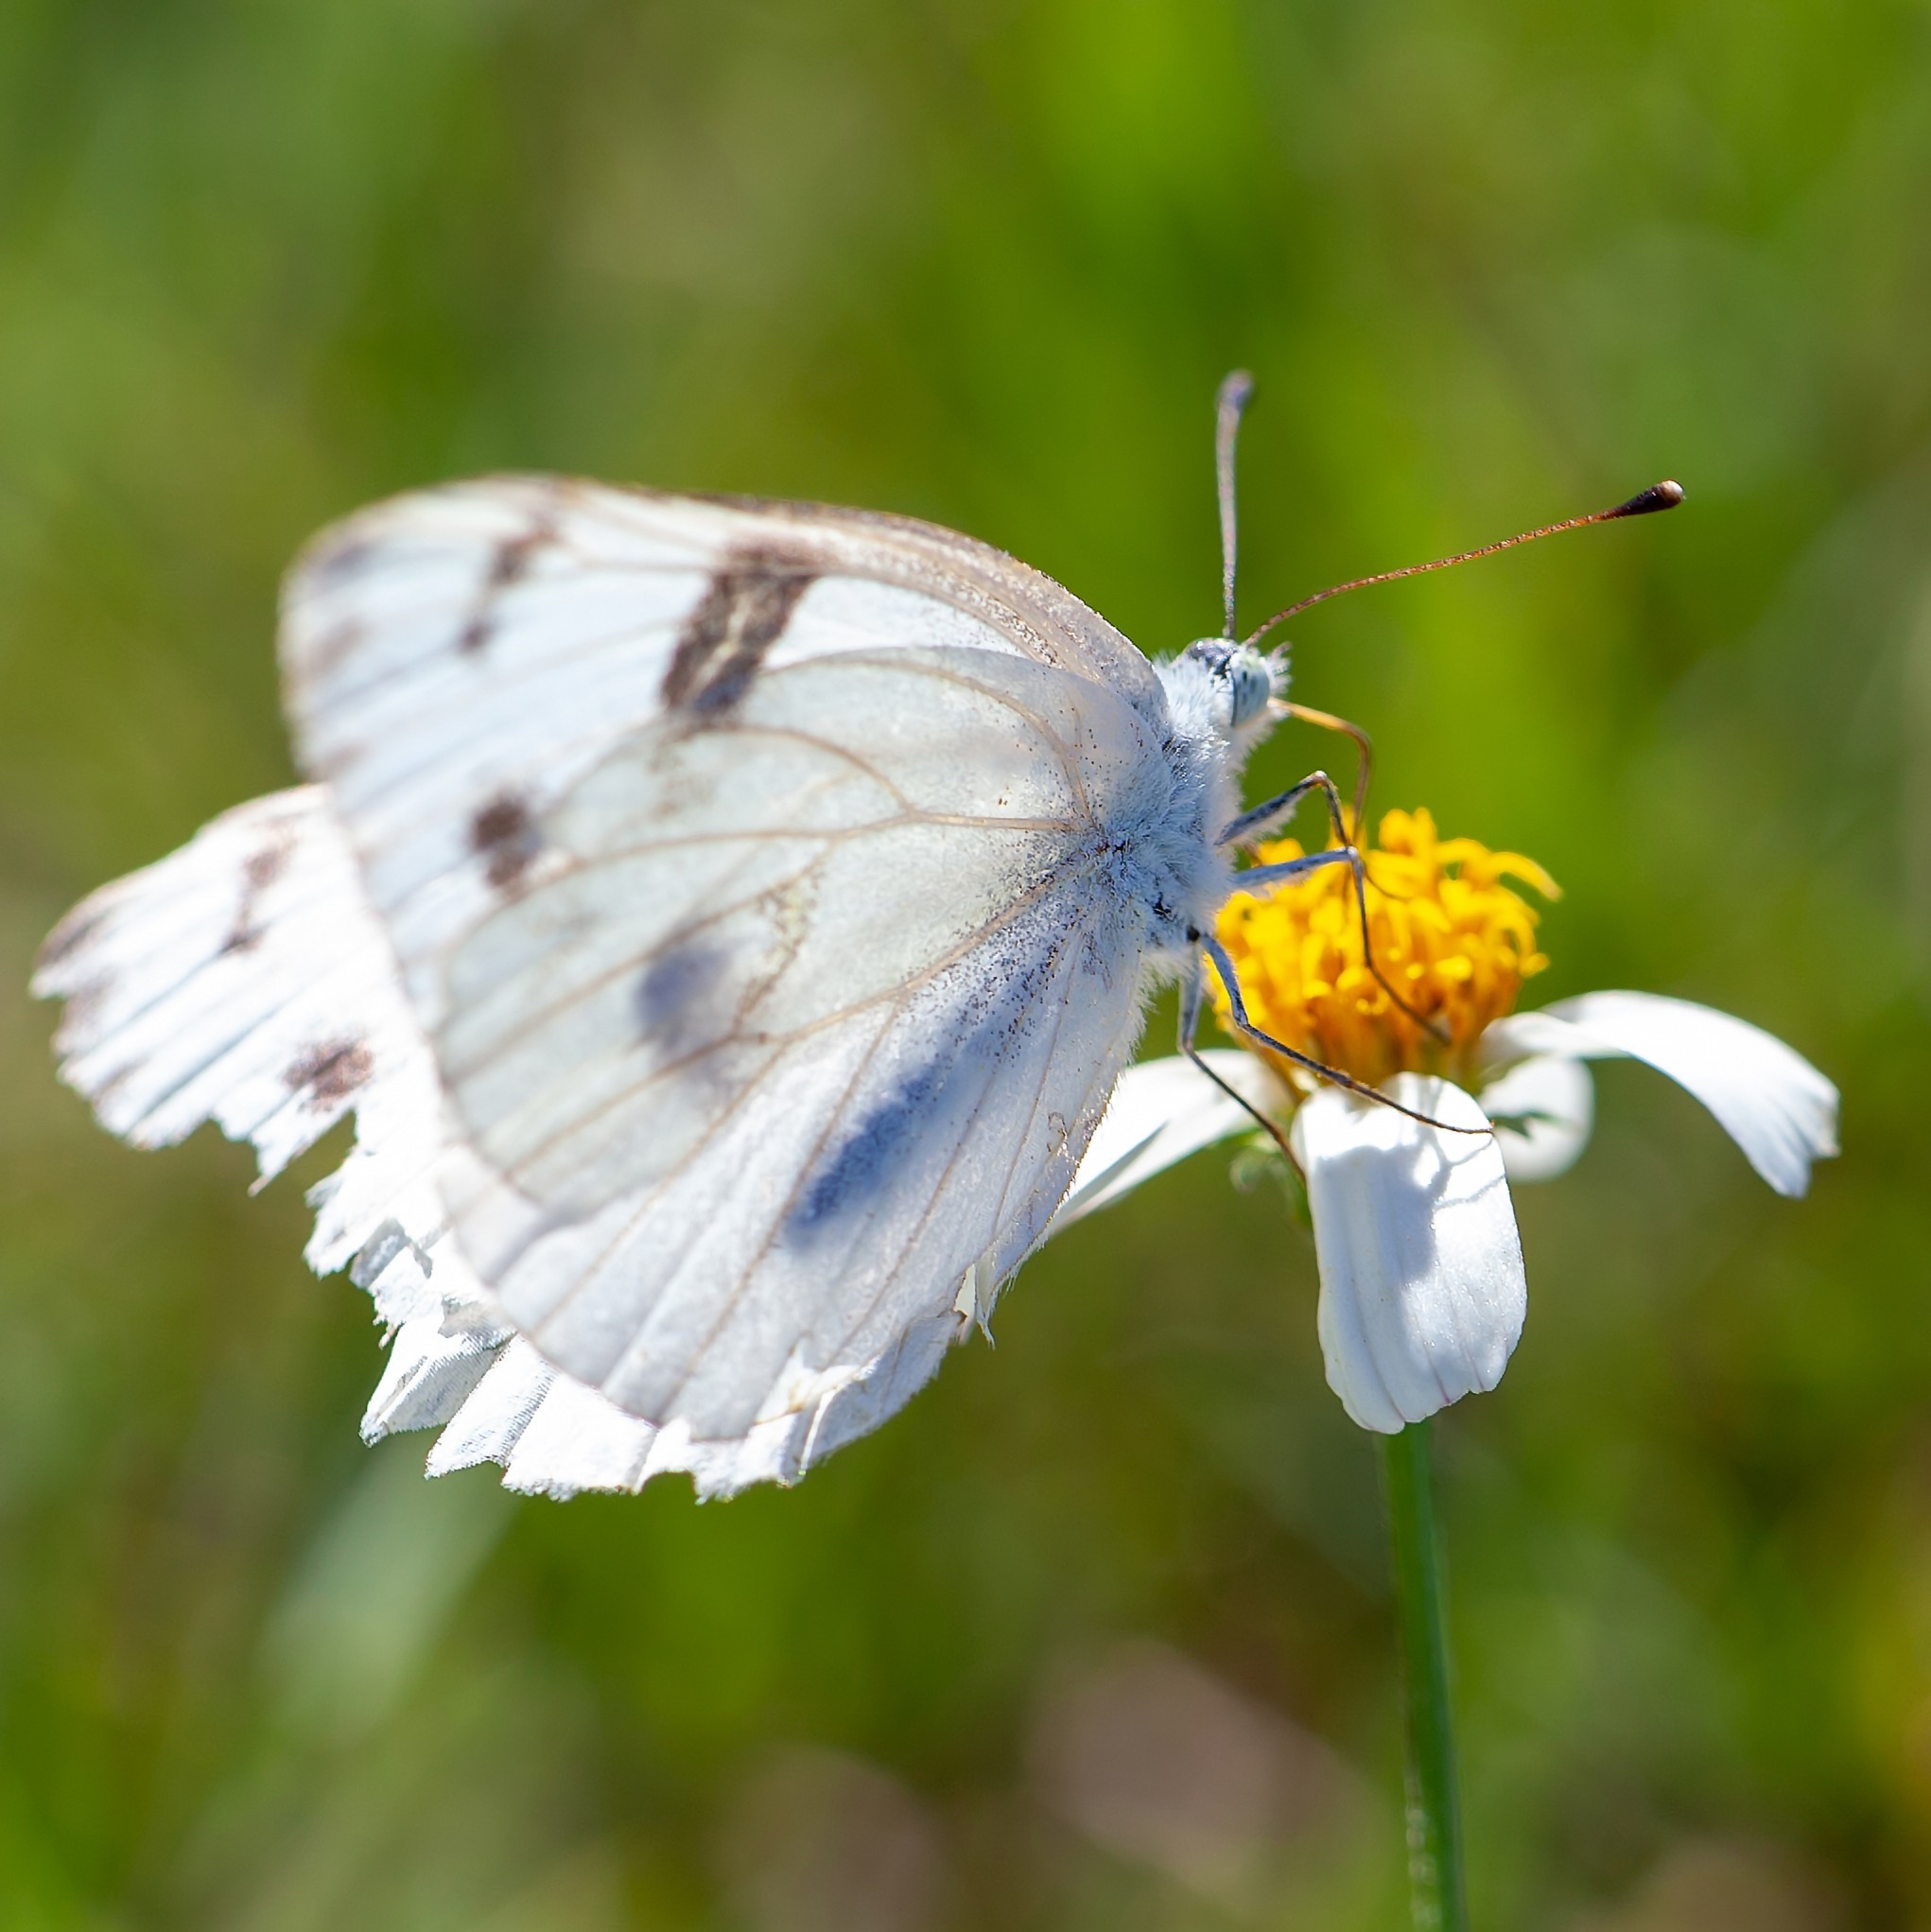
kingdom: Animalia
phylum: Arthropoda
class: Insecta
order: Lepidoptera
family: Pieridae
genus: Pontia
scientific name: Pontia protodice
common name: Checkered white
